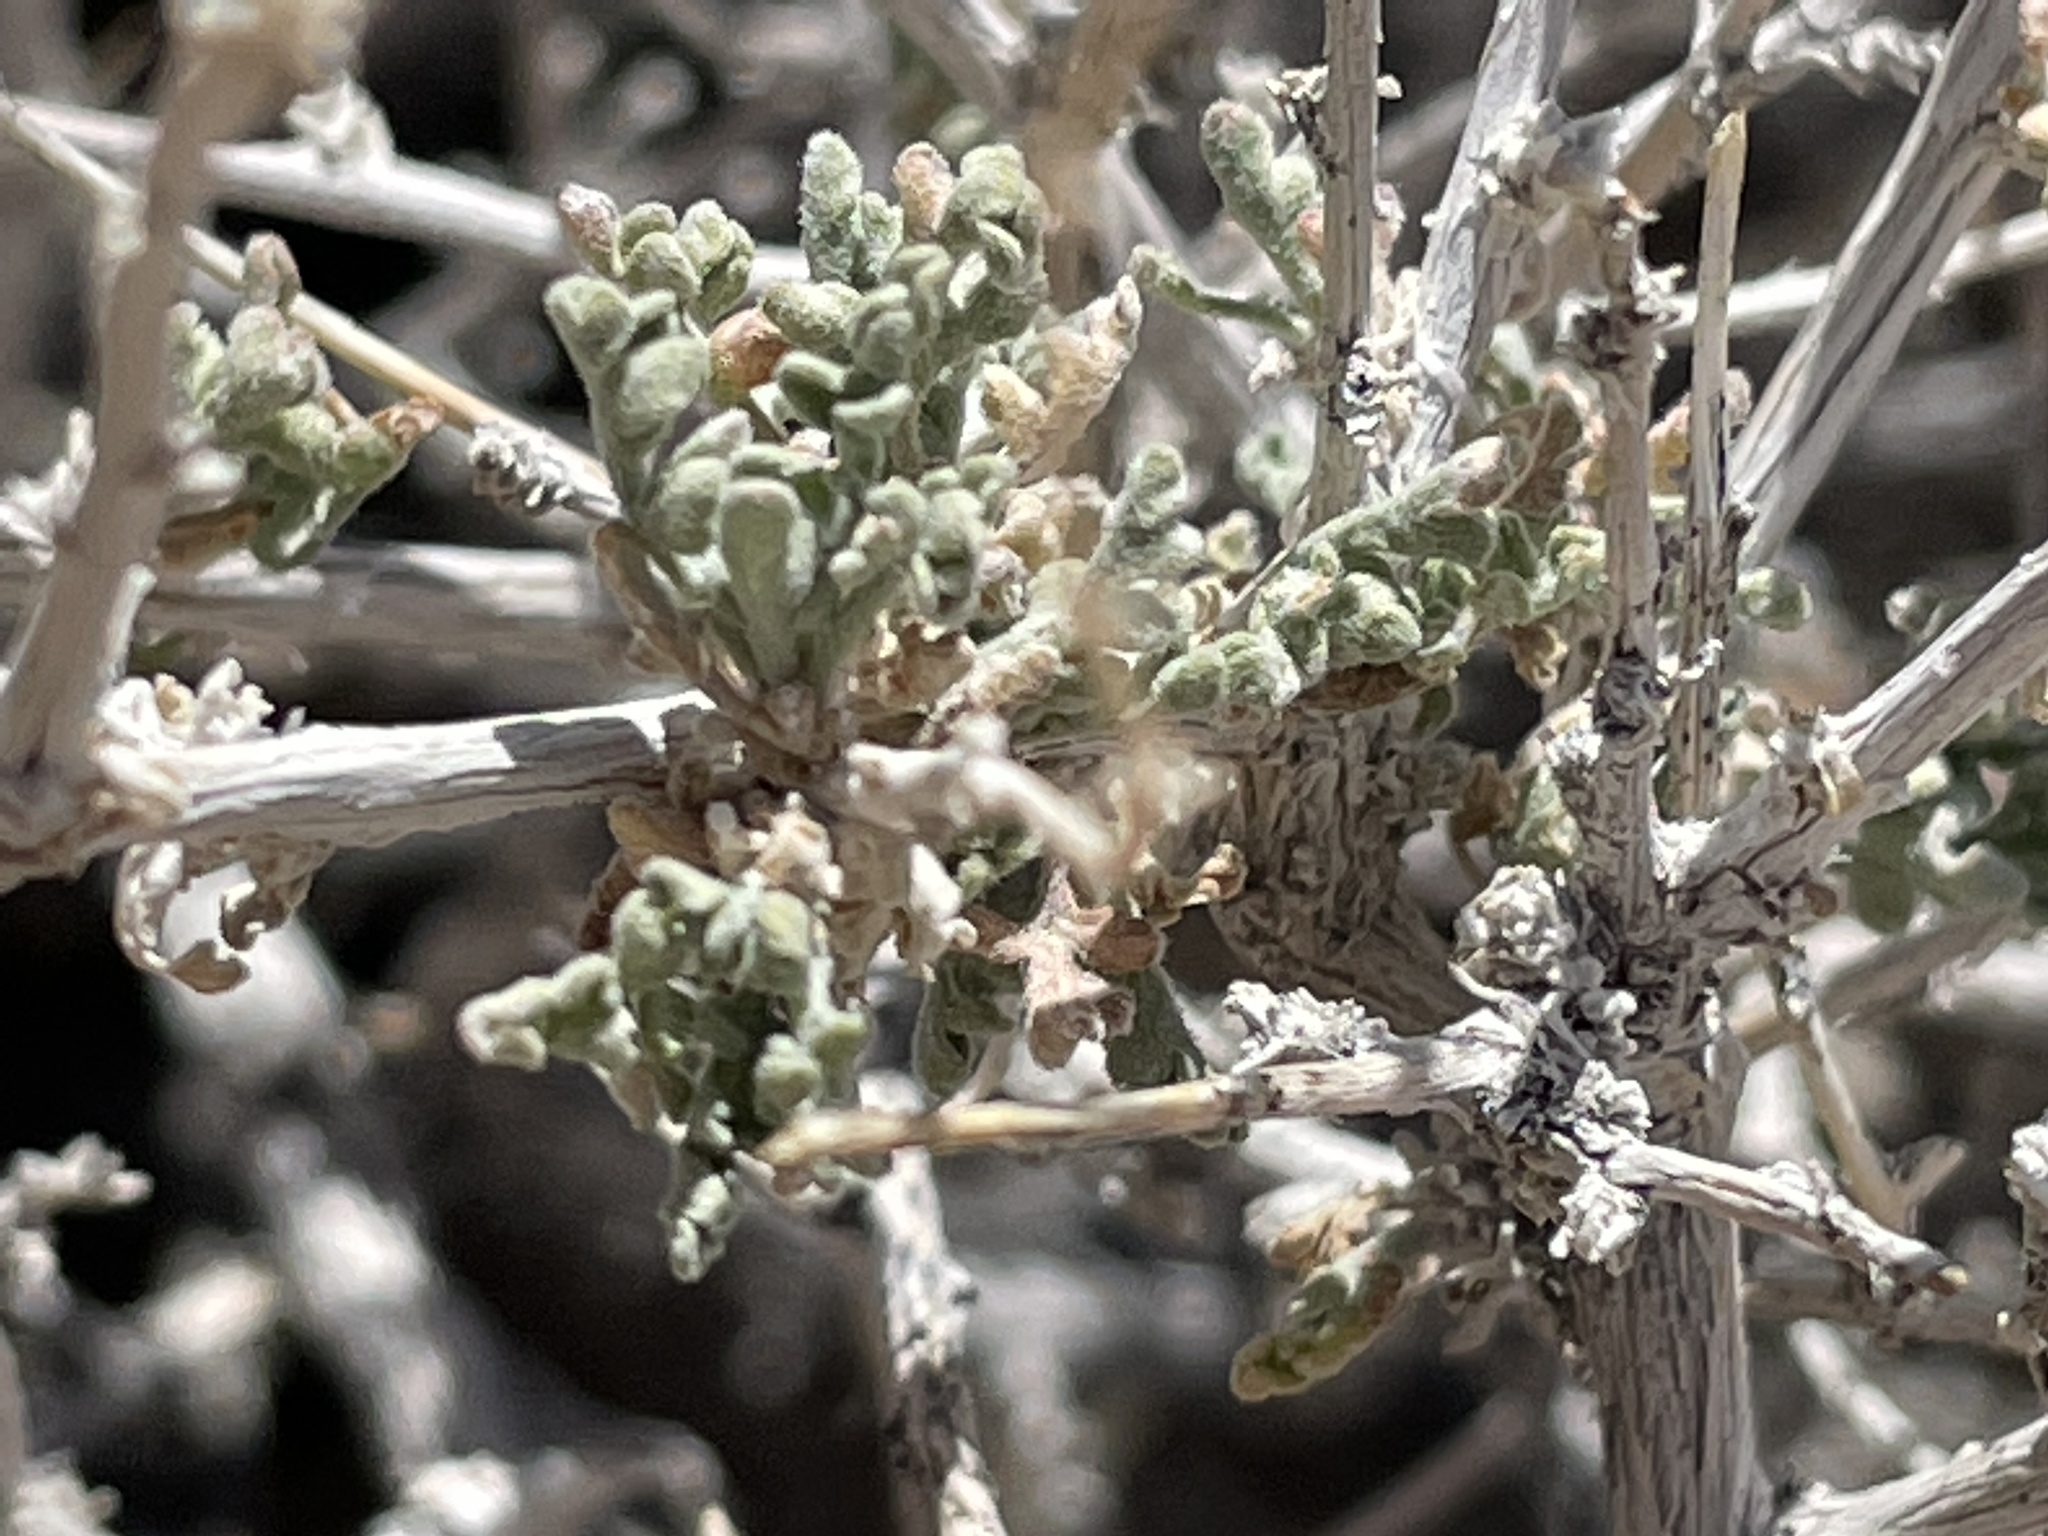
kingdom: Plantae
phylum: Tracheophyta
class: Magnoliopsida
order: Asterales
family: Asteraceae
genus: Ambrosia
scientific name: Ambrosia dumosa
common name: Bur-sage
